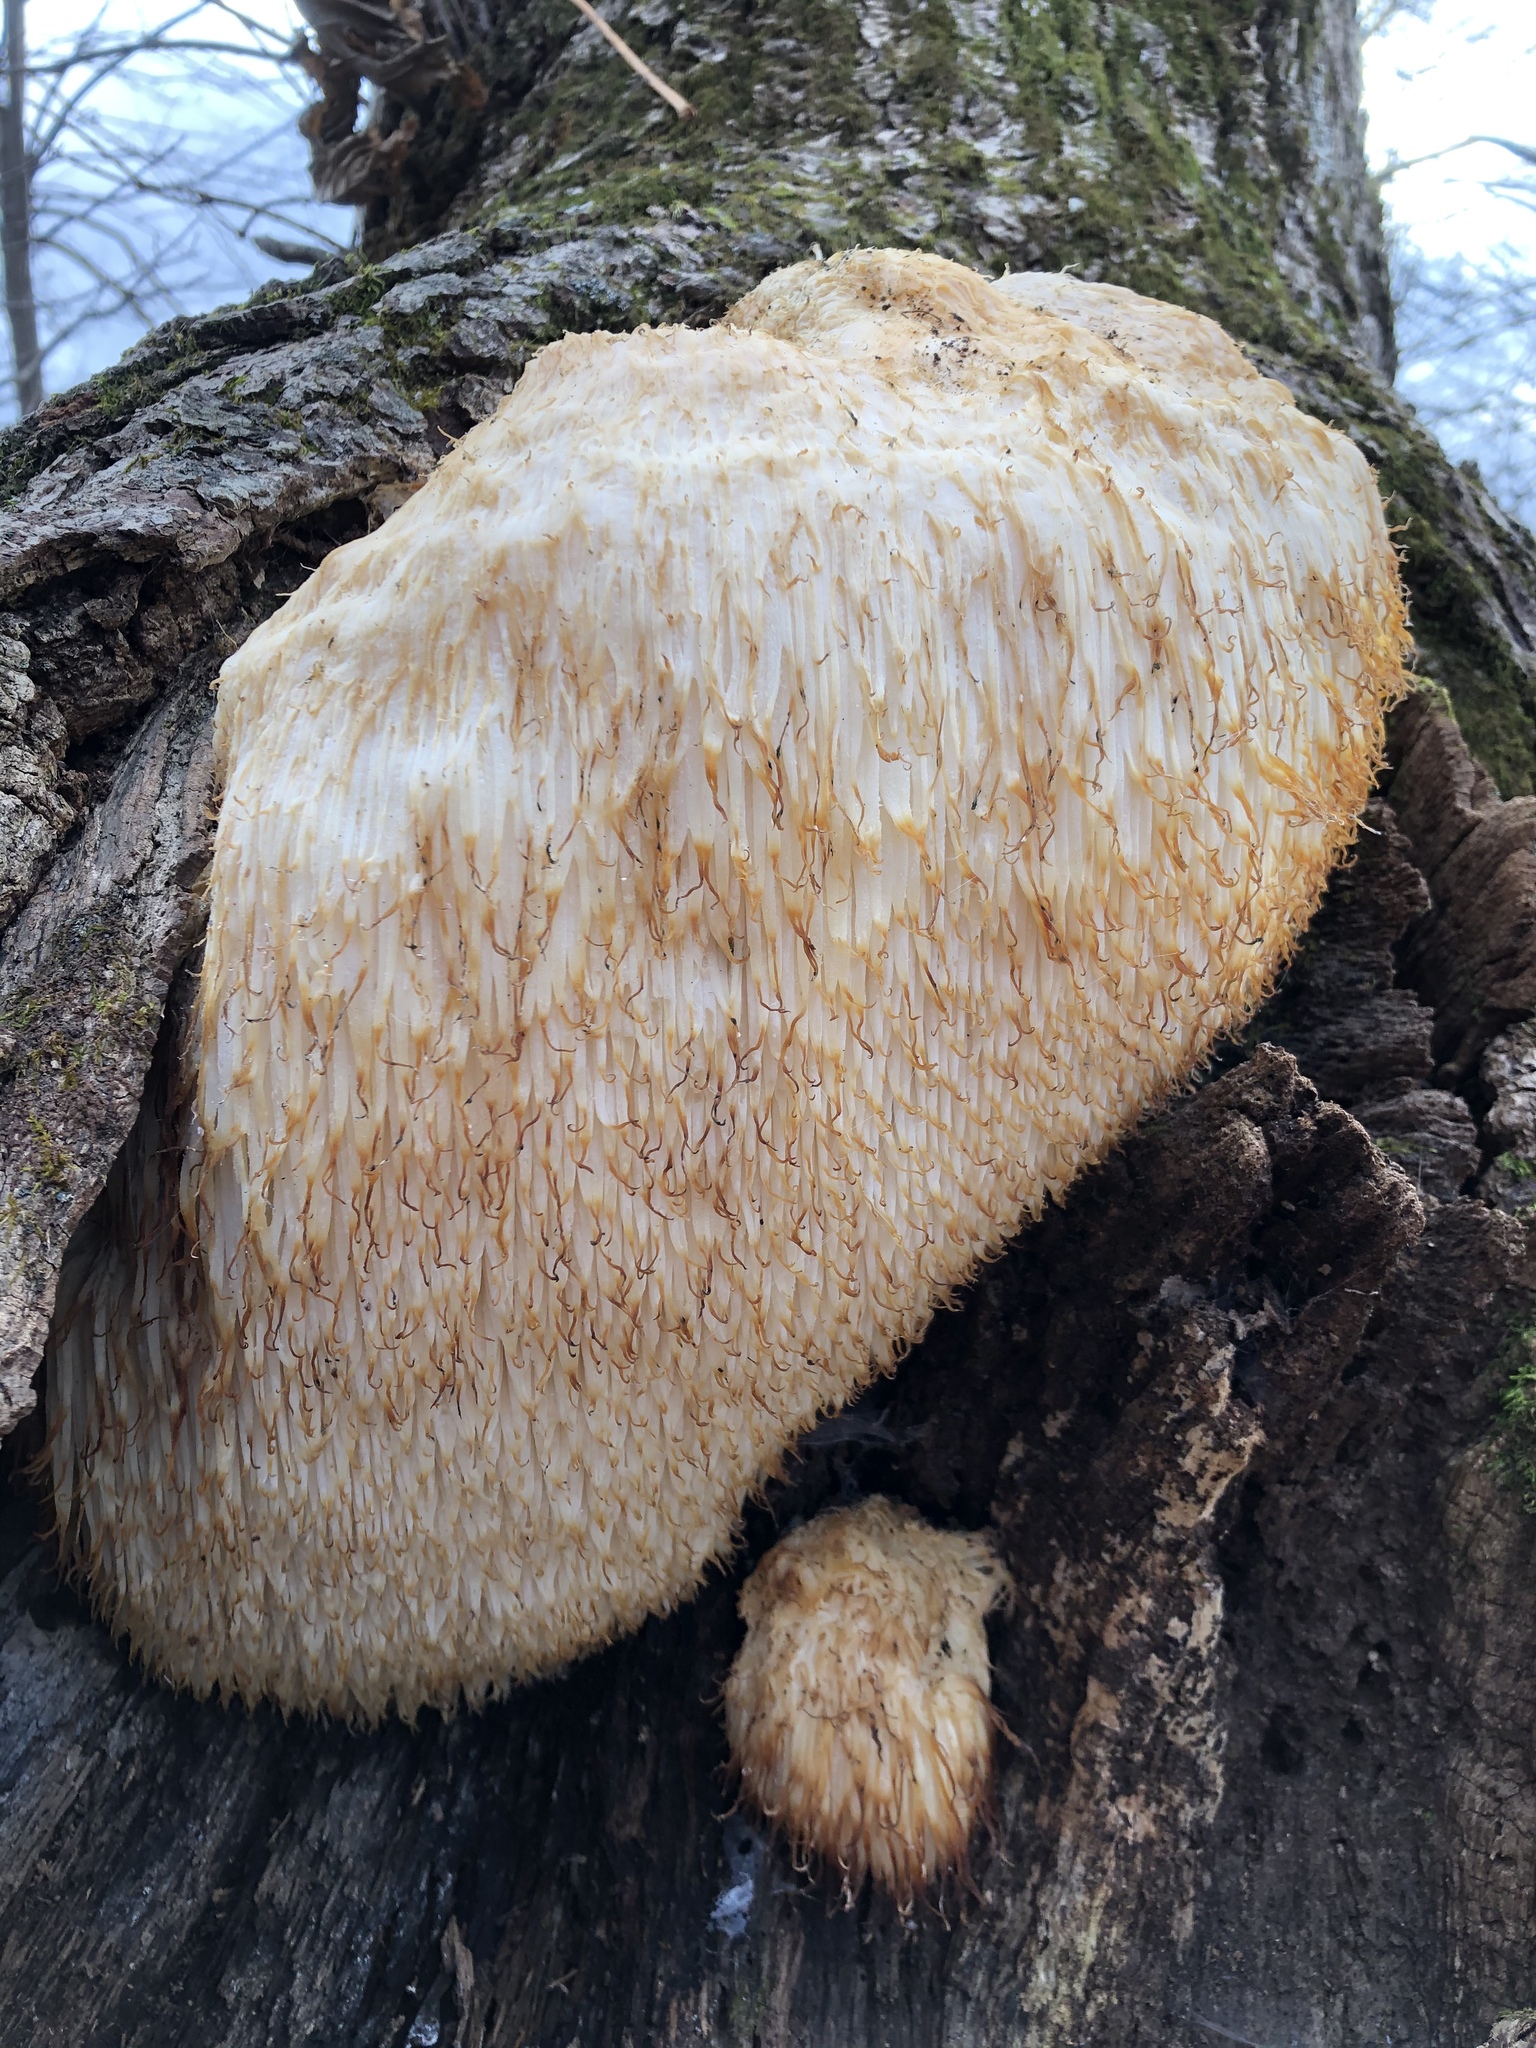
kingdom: Fungi
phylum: Basidiomycota
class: Agaricomycetes
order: Russulales
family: Hericiaceae
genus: Hericium
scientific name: Hericium erinaceus
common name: Bearded tooth
